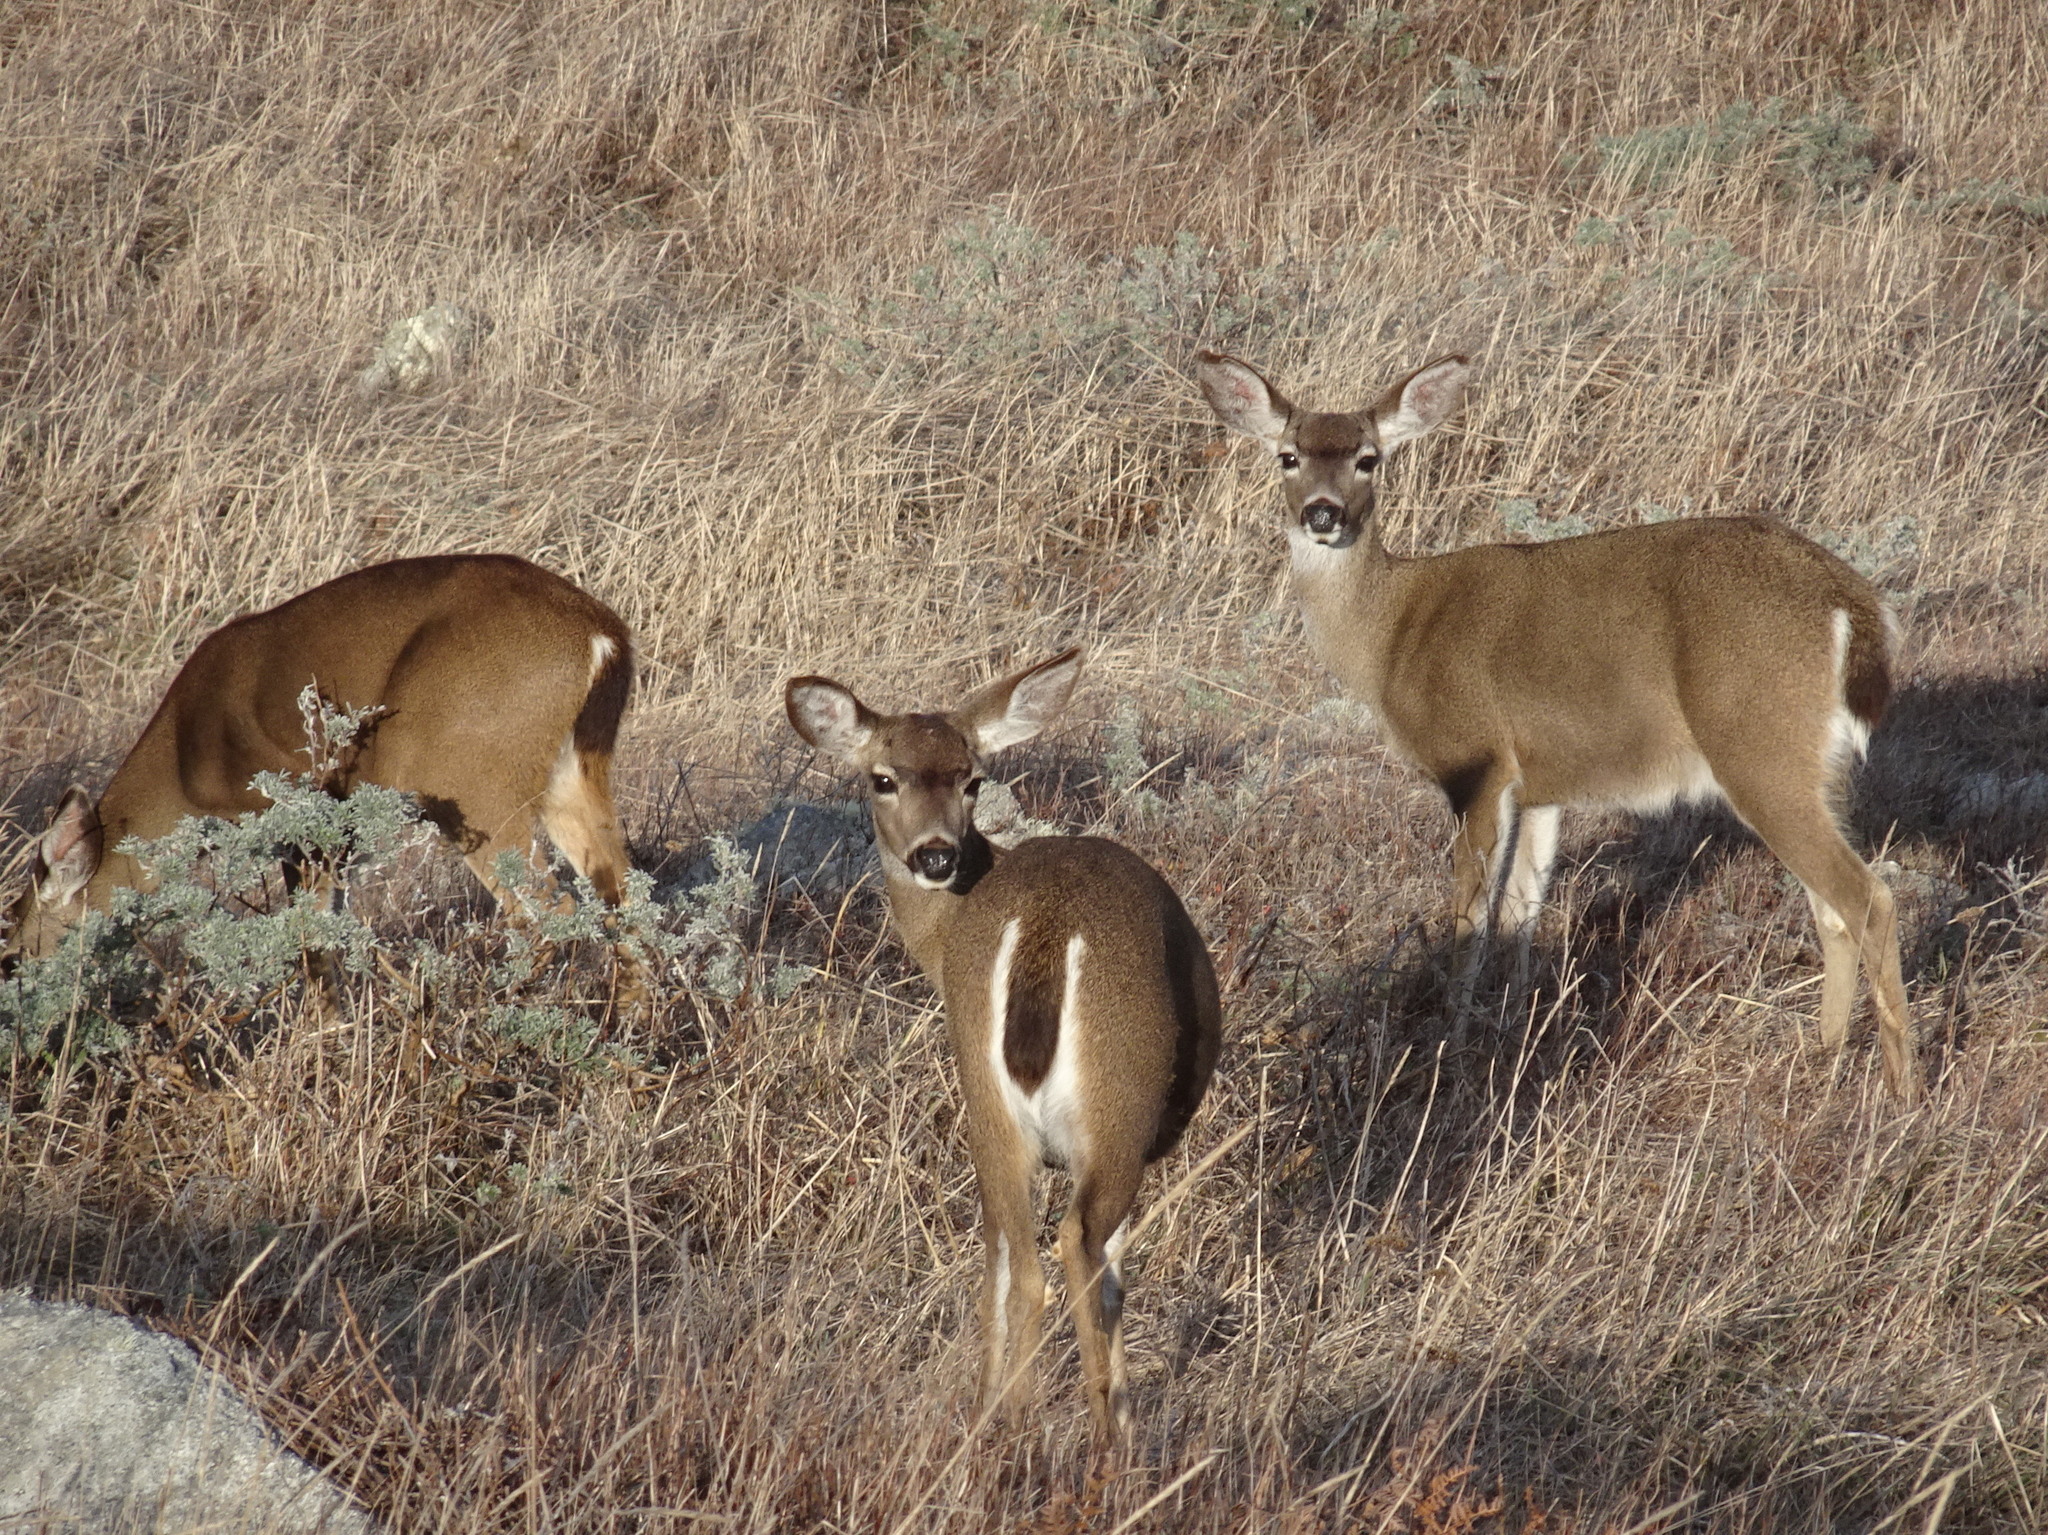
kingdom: Animalia
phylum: Chordata
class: Mammalia
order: Artiodactyla
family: Cervidae
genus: Odocoileus
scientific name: Odocoileus hemionus
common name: Mule deer
